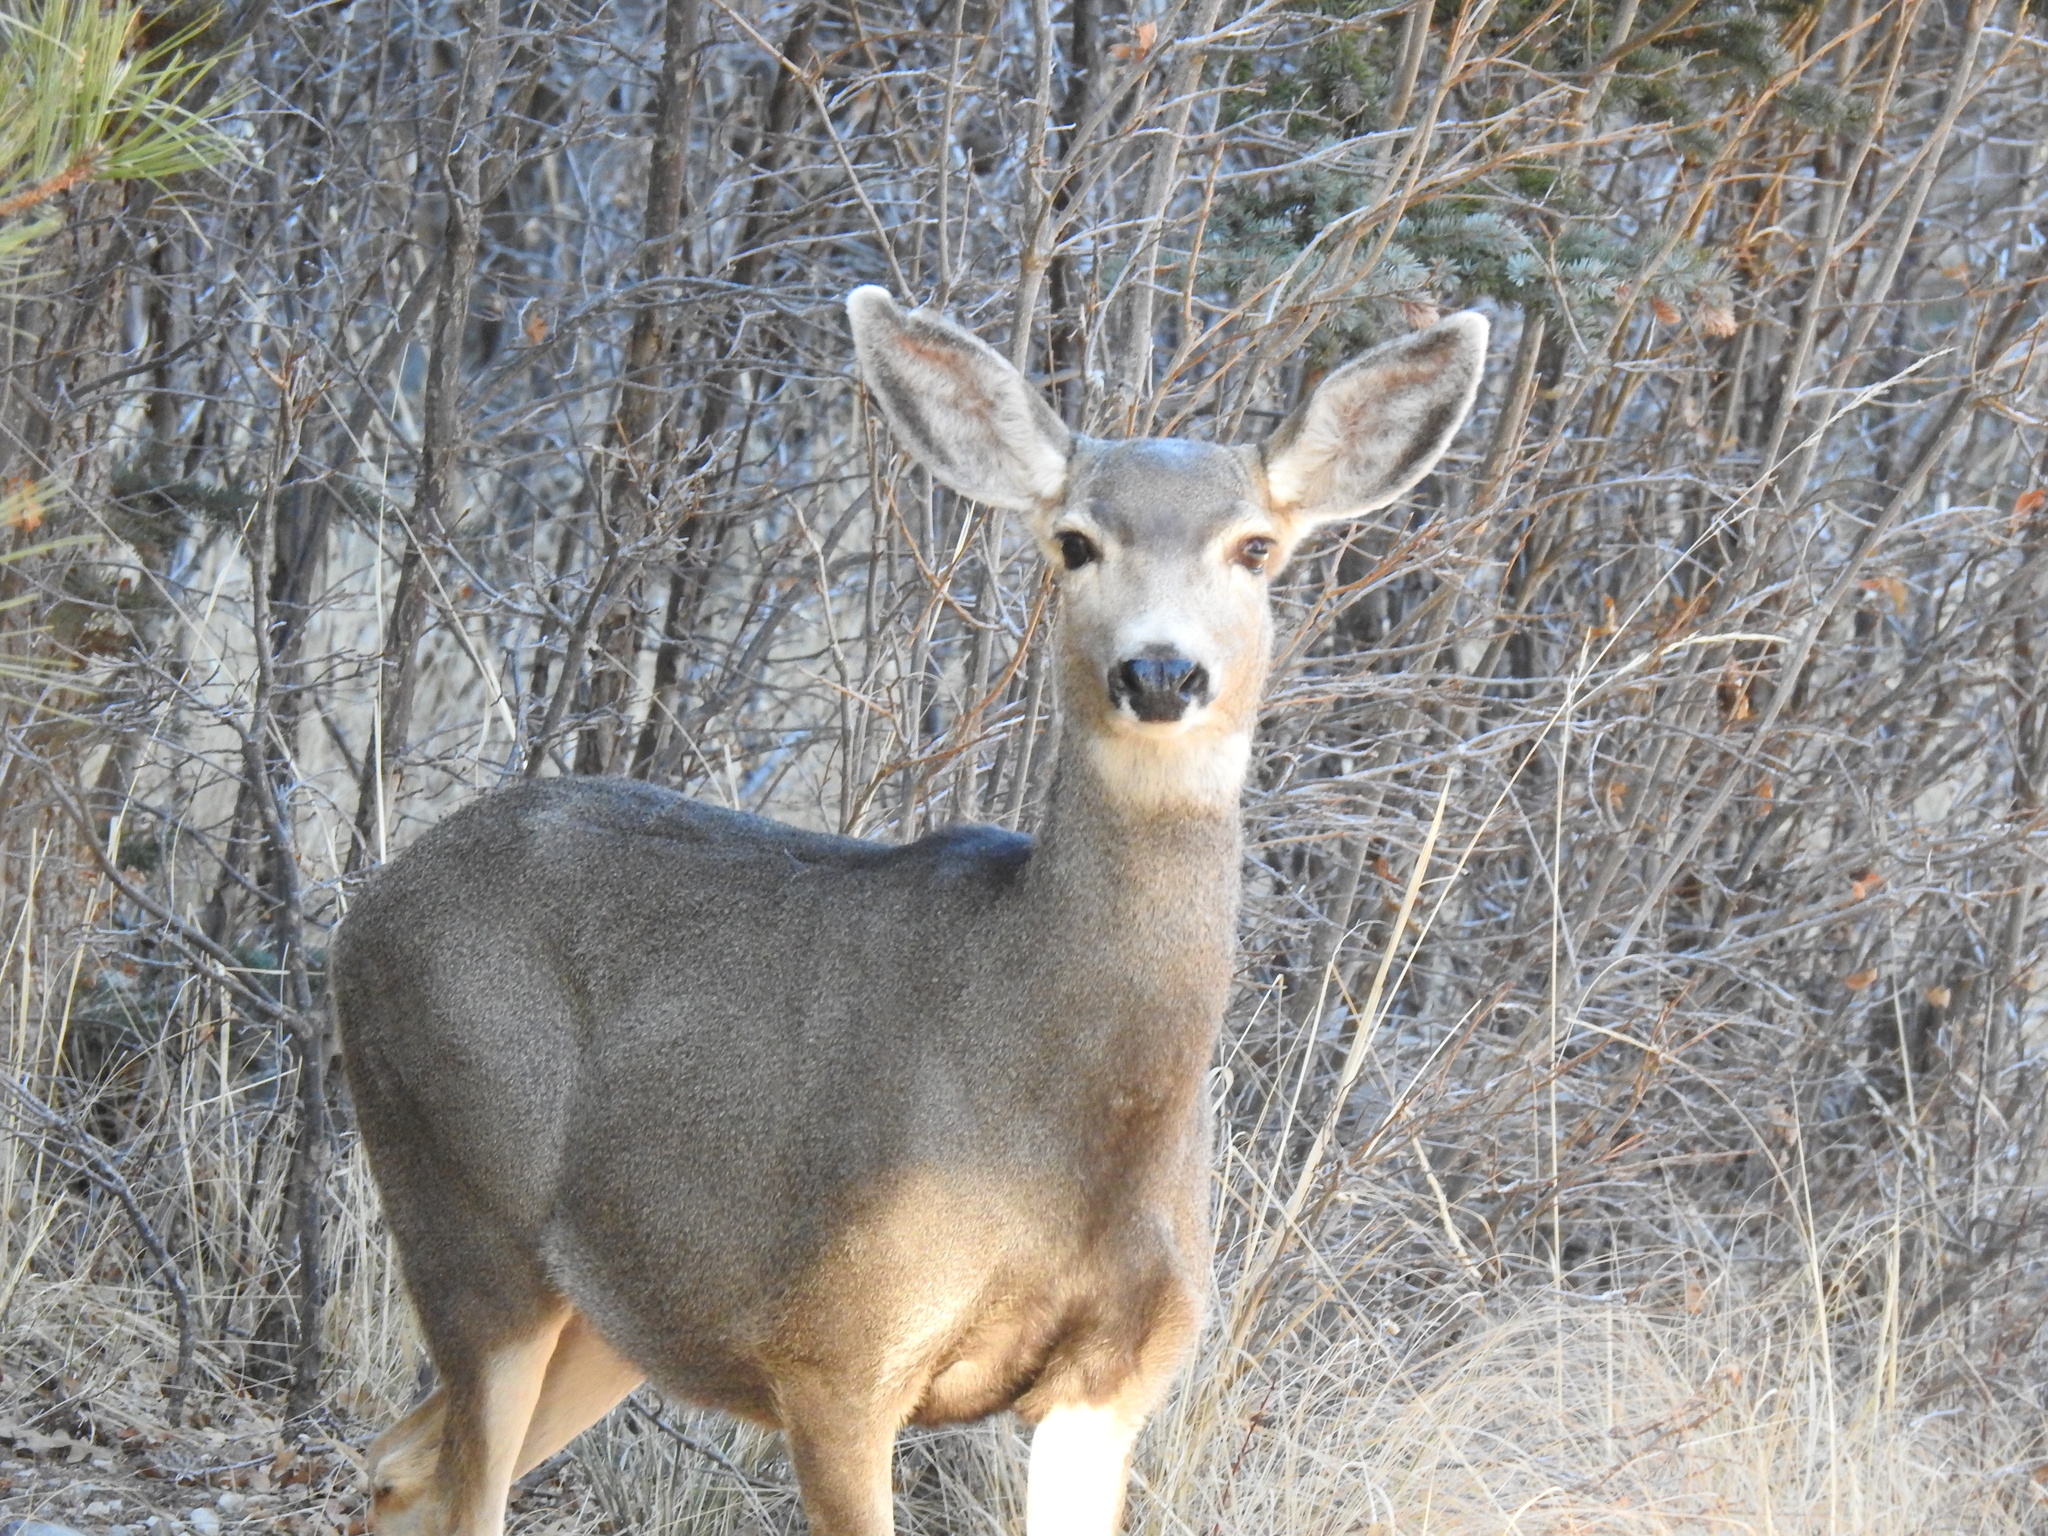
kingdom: Animalia
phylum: Chordata
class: Mammalia
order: Artiodactyla
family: Cervidae
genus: Odocoileus
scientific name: Odocoileus hemionus
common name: Mule deer
